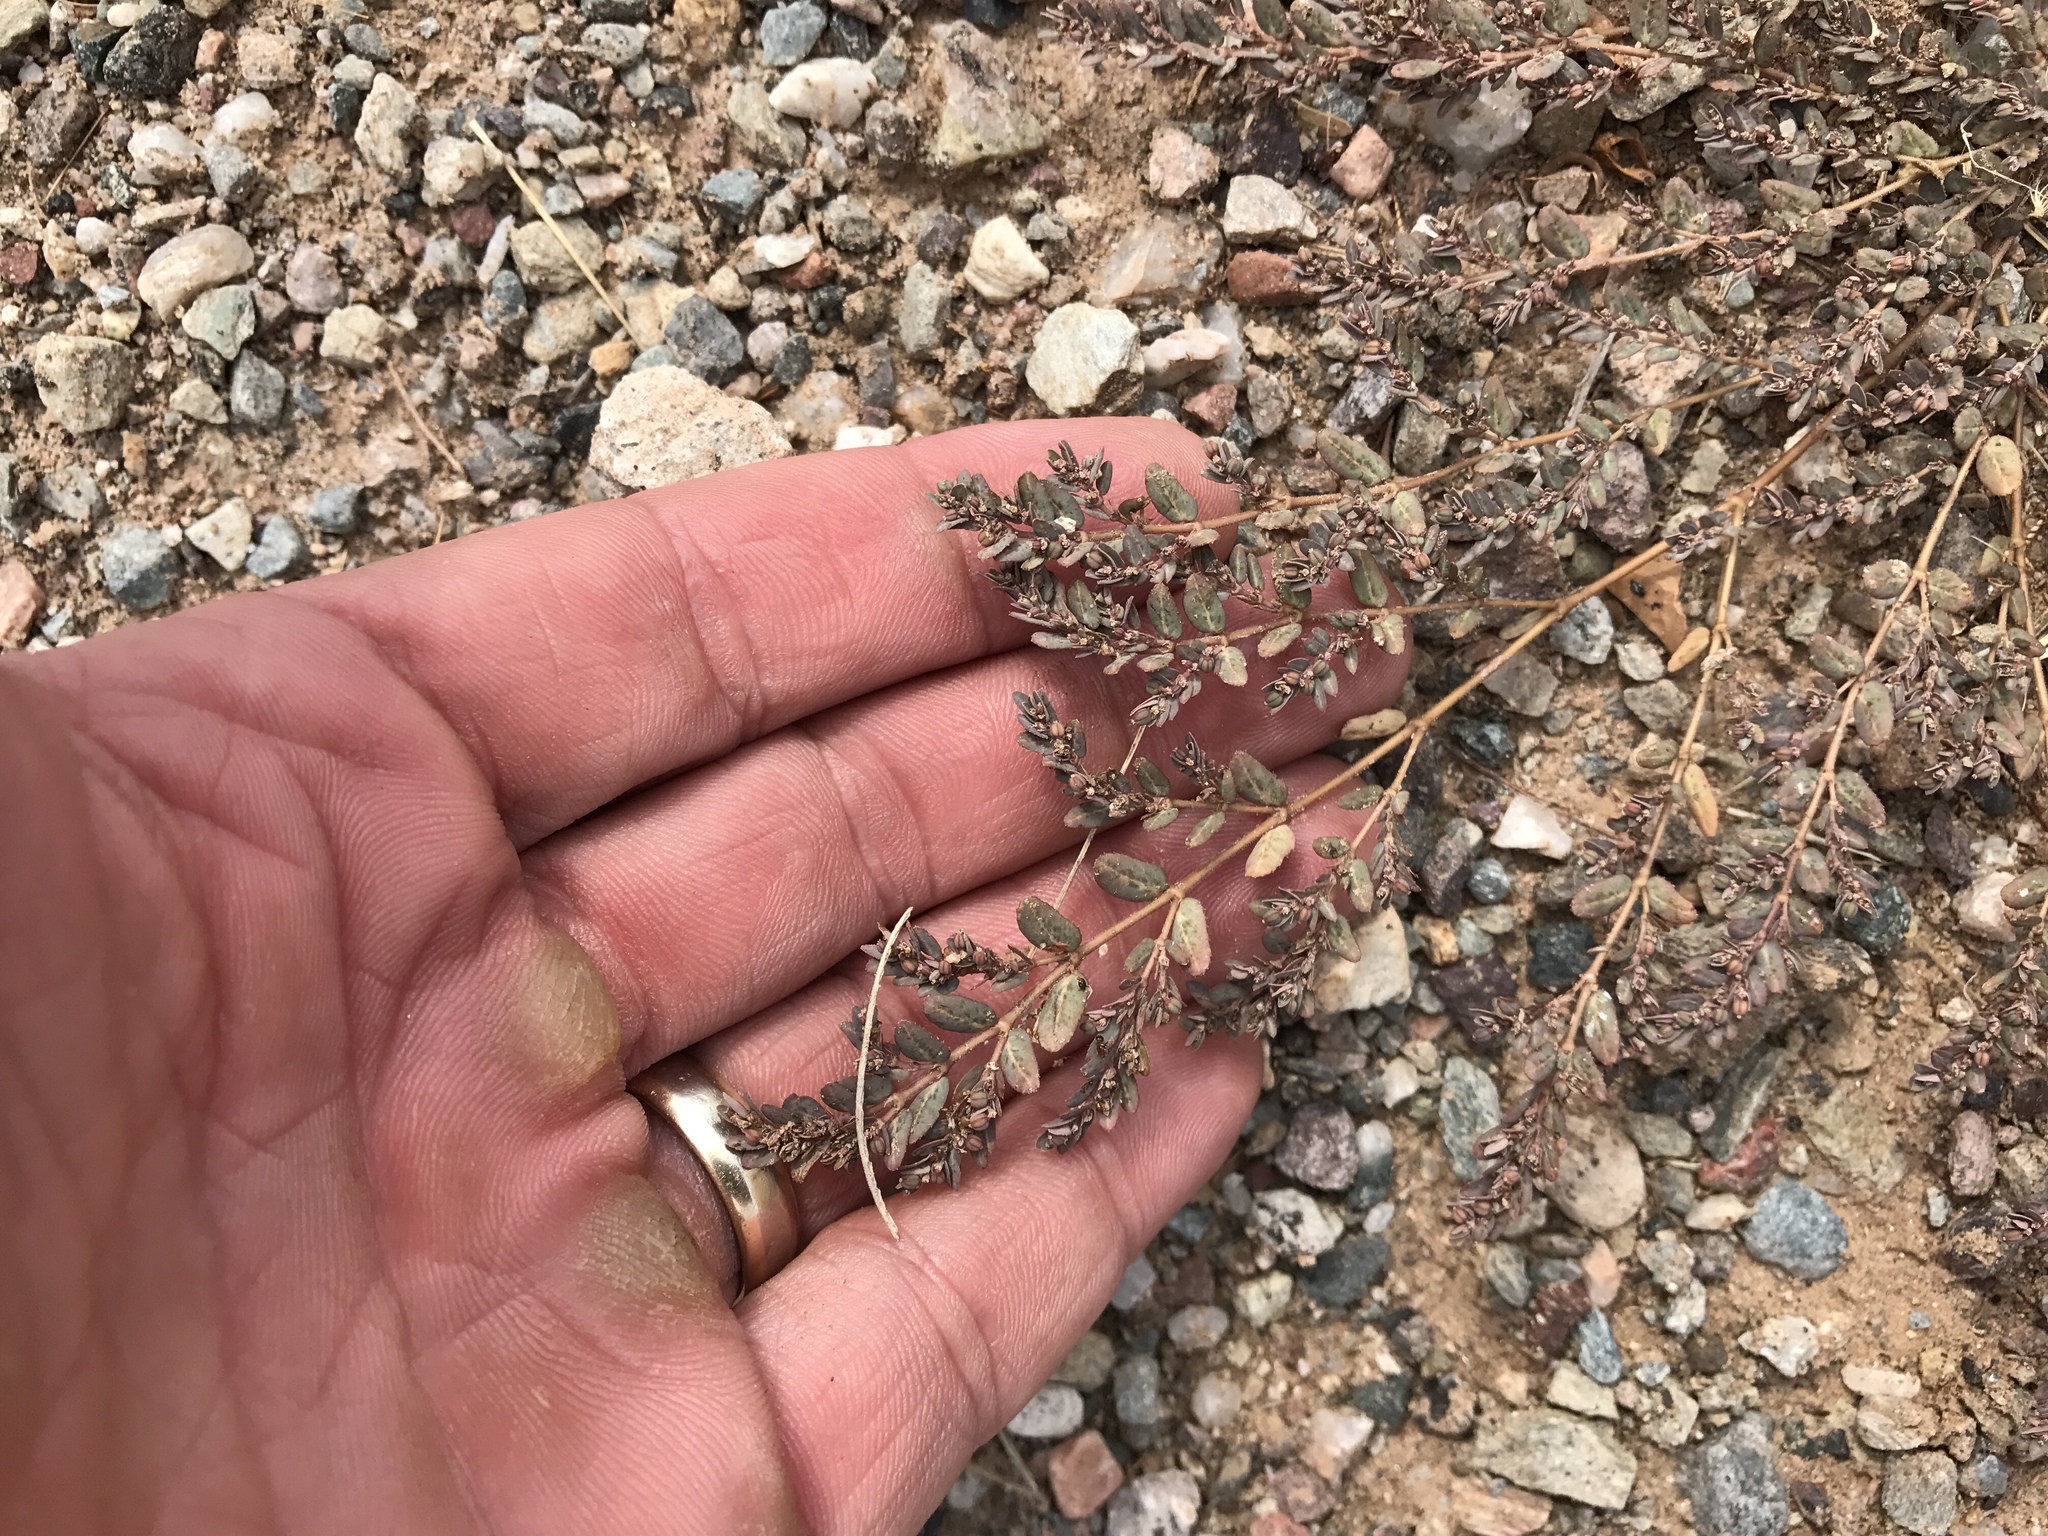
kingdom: Plantae
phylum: Tracheophyta
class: Magnoliopsida
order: Malpighiales
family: Euphorbiaceae
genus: Euphorbia
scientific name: Euphorbia abramsiana
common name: Abram's spurge
